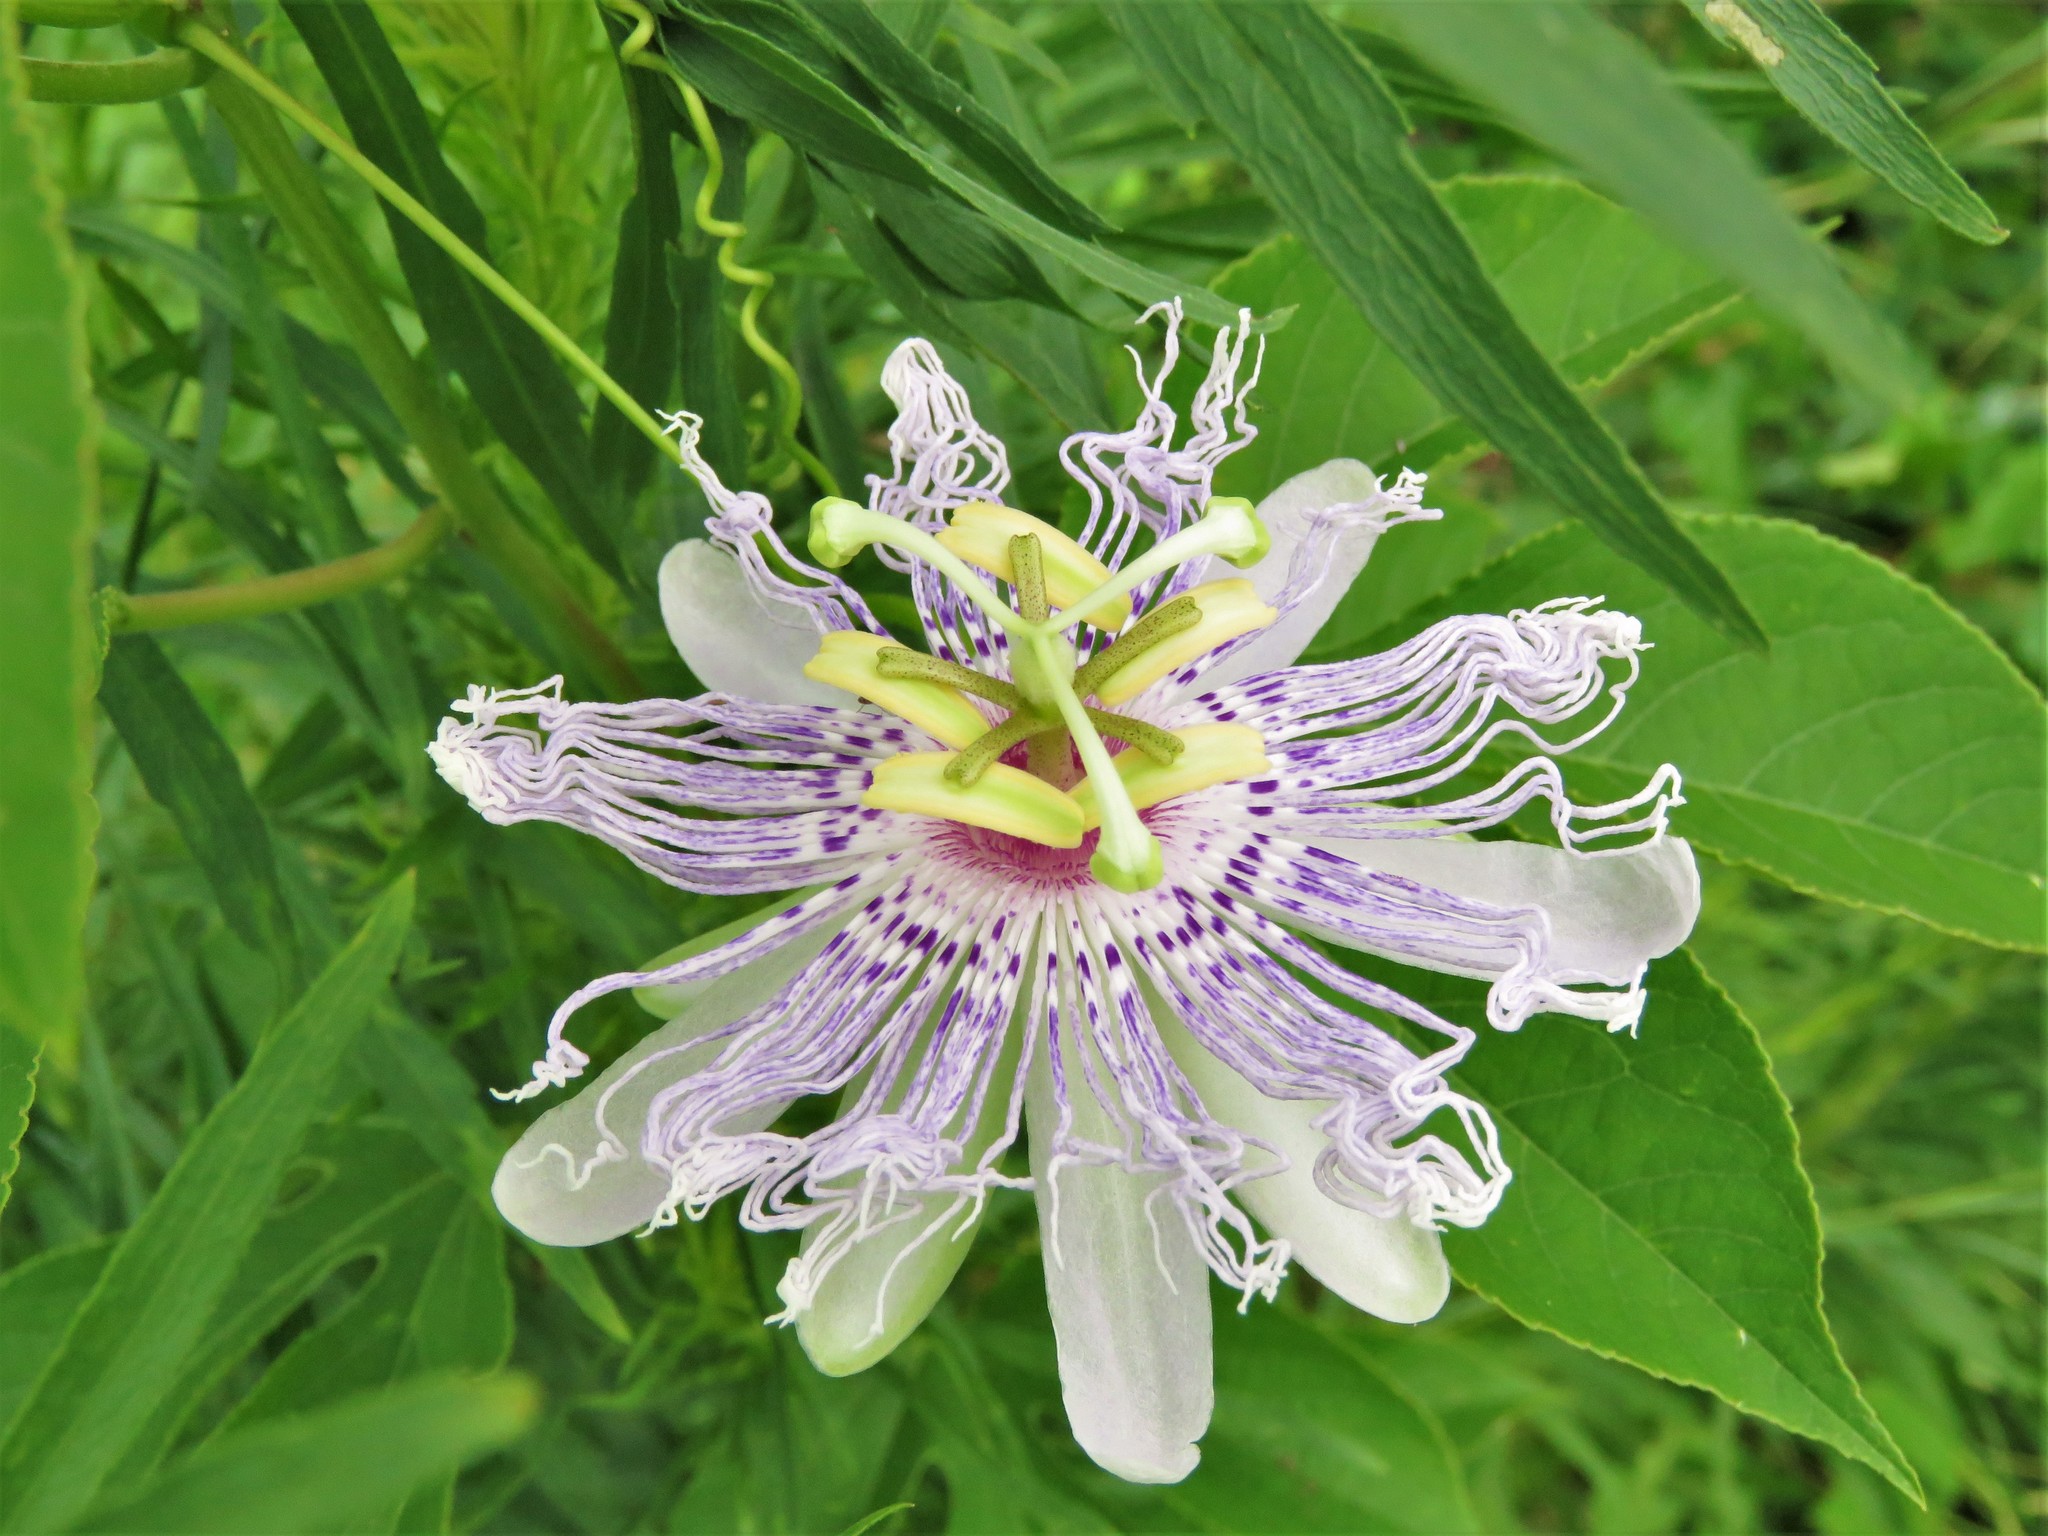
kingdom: Plantae
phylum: Tracheophyta
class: Magnoliopsida
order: Malpighiales
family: Passifloraceae
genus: Passiflora
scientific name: Passiflora incarnata
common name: Apricot-vine
